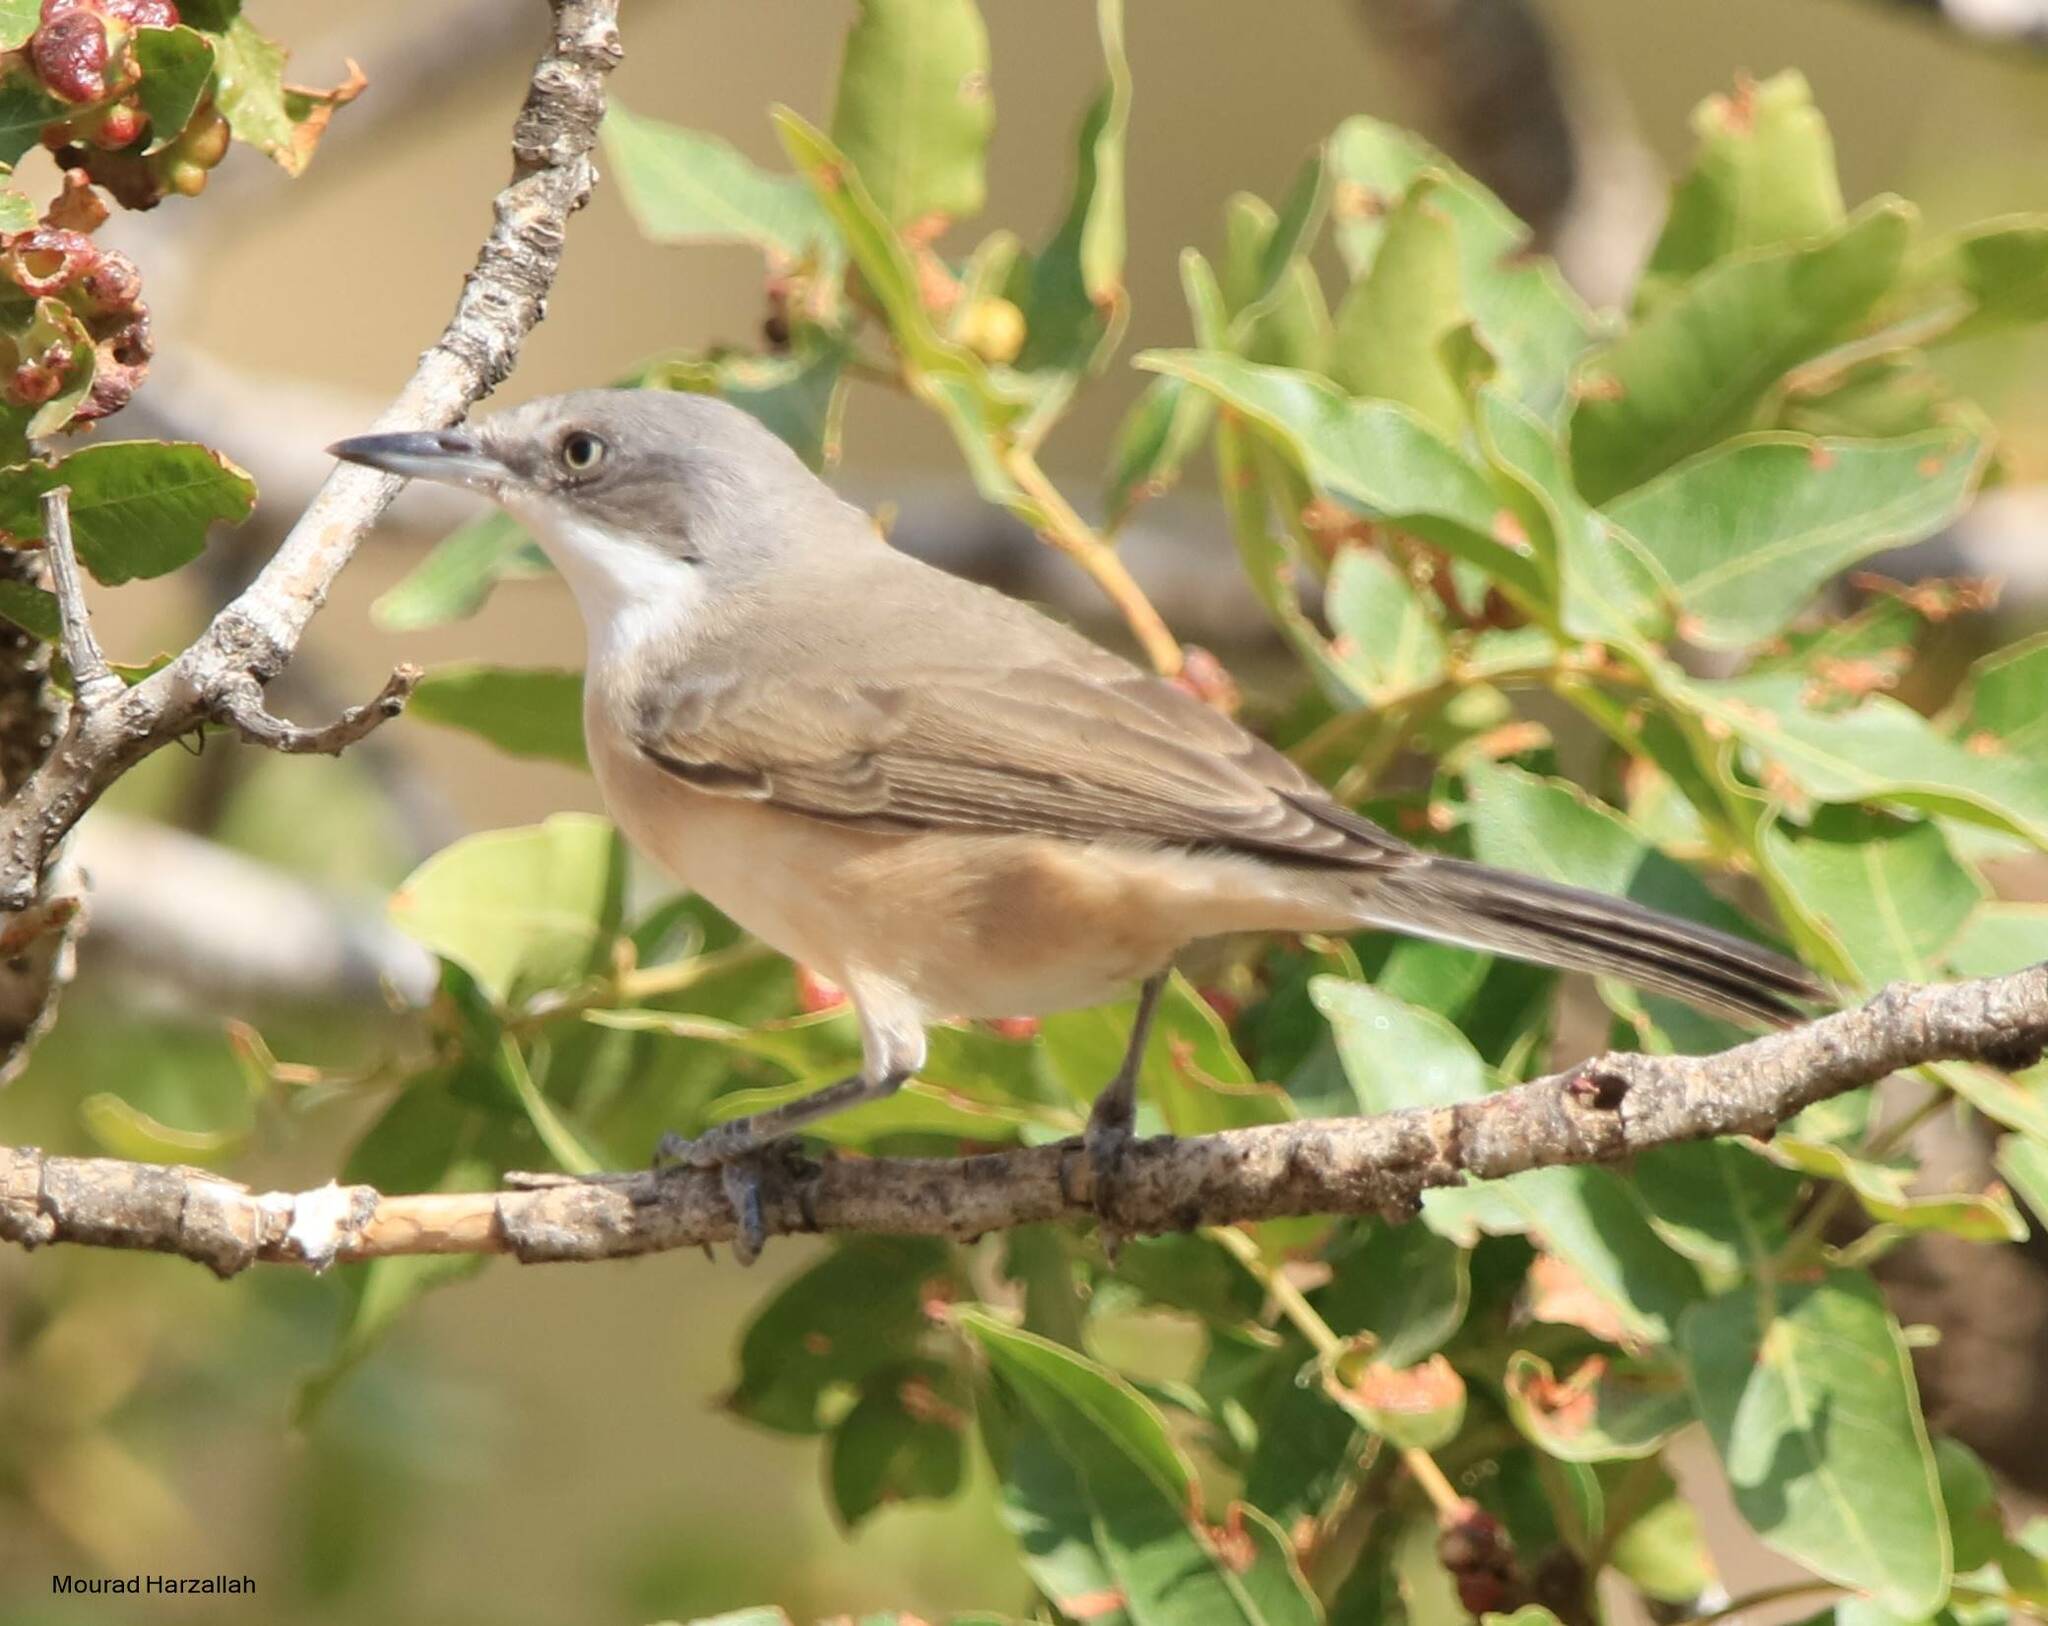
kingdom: Animalia
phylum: Chordata
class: Aves
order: Passeriformes
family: Sylviidae
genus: Sylvia
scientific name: Sylvia hortensis
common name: Orphean warbler
